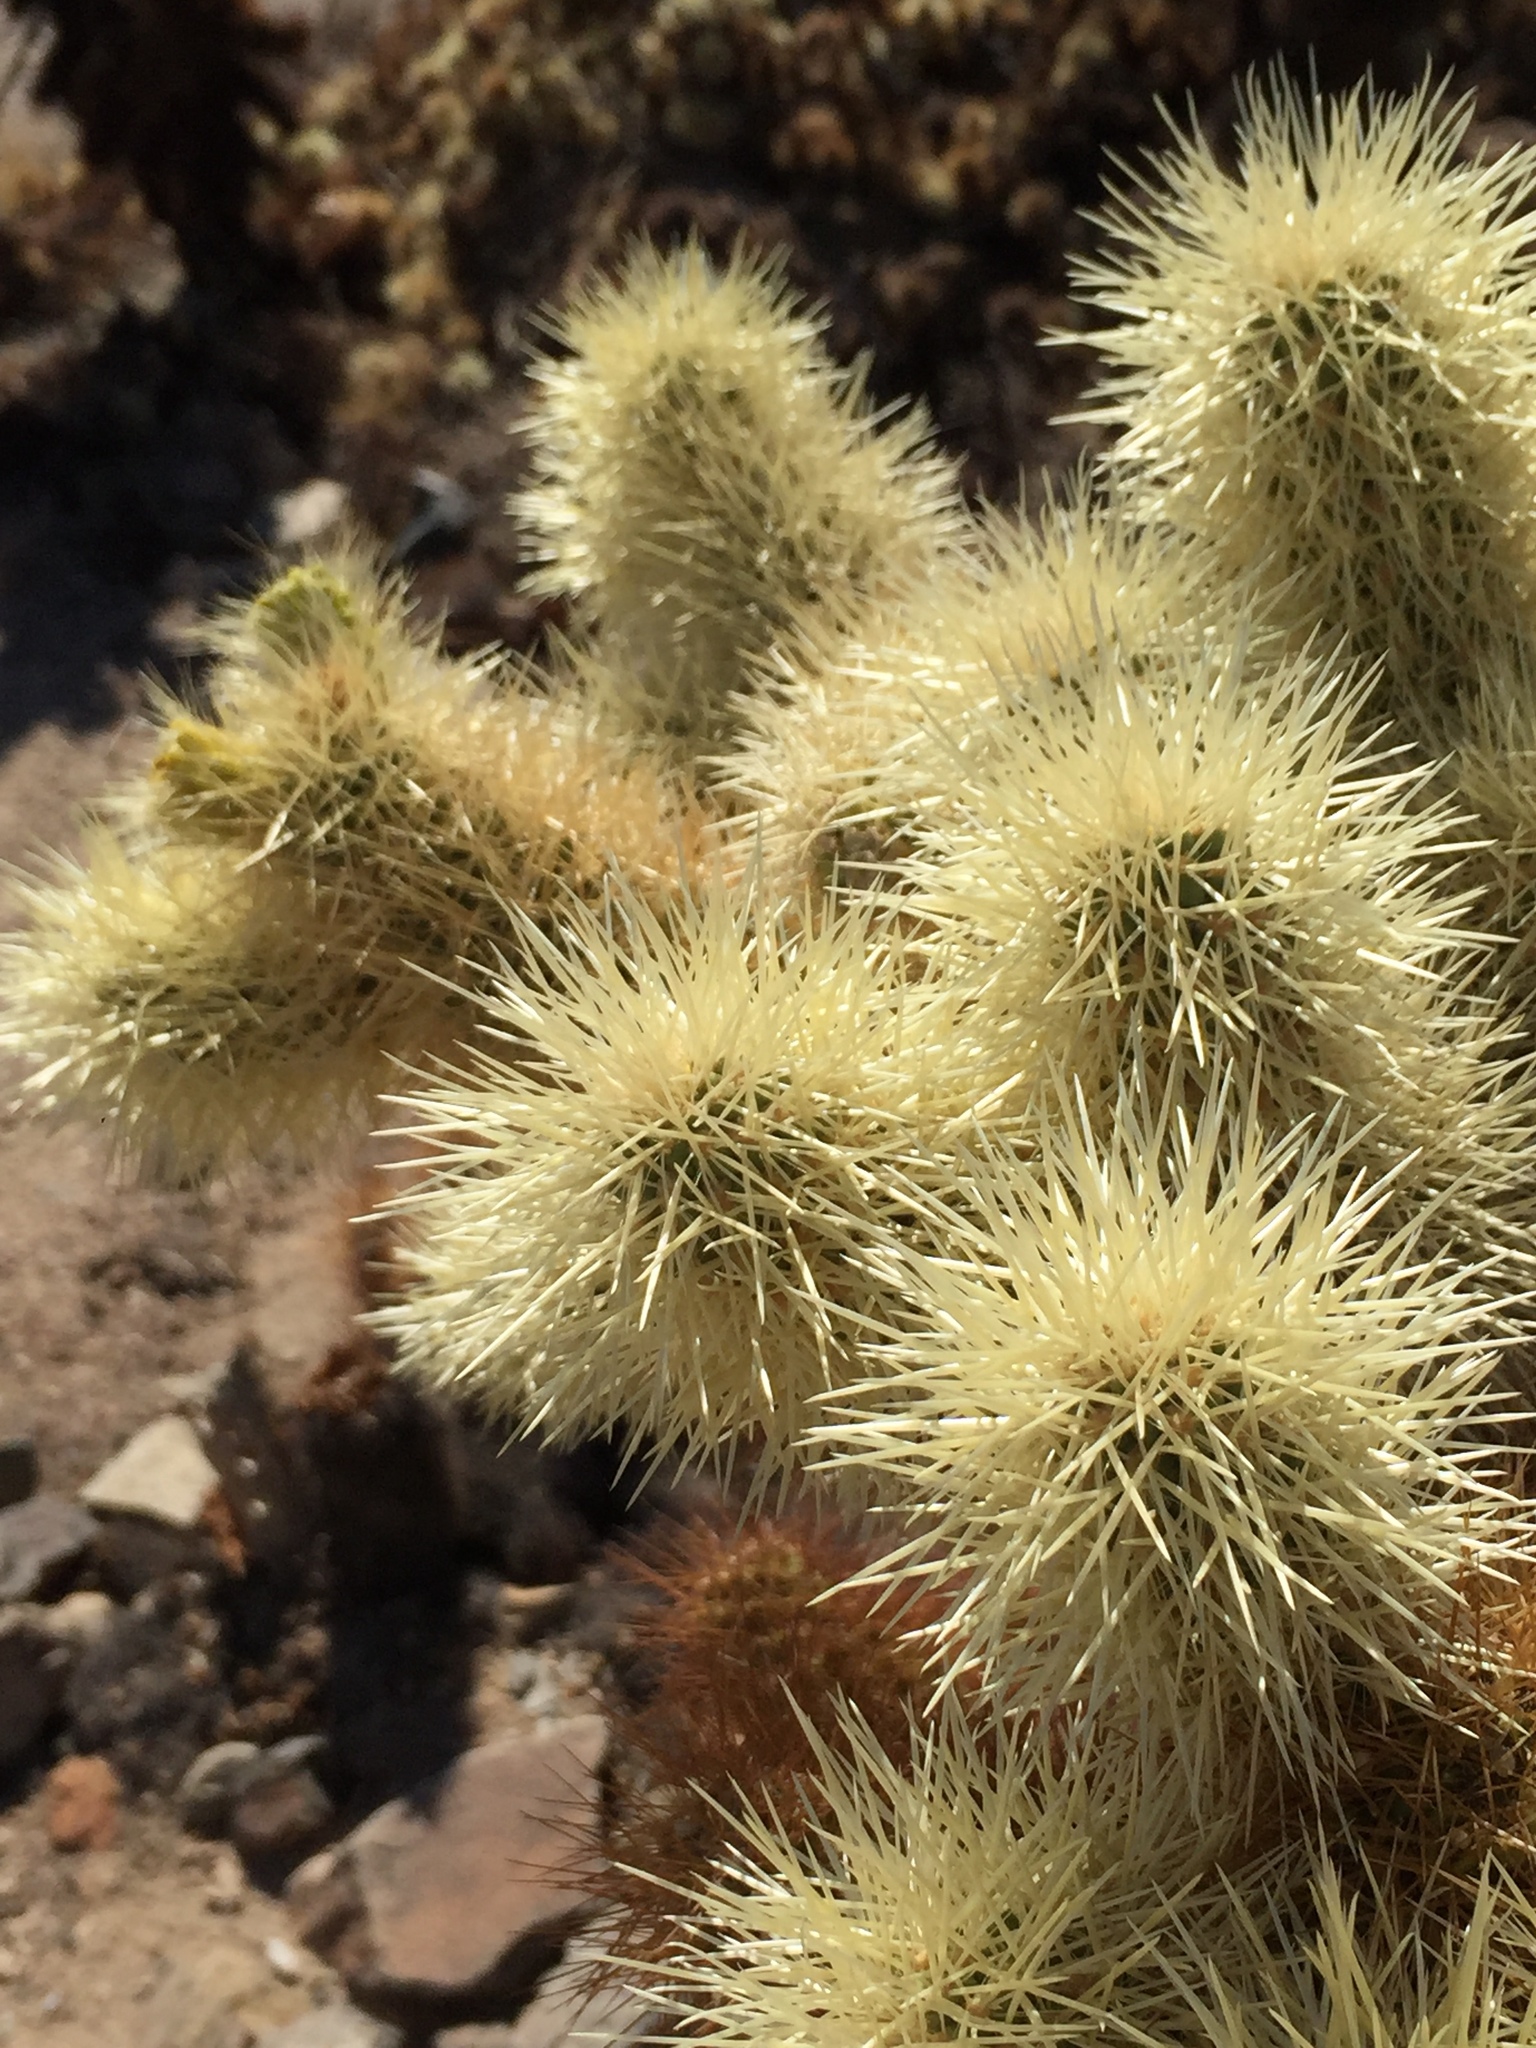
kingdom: Plantae
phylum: Tracheophyta
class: Magnoliopsida
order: Caryophyllales
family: Cactaceae
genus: Cylindropuntia
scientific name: Cylindropuntia fosbergii
